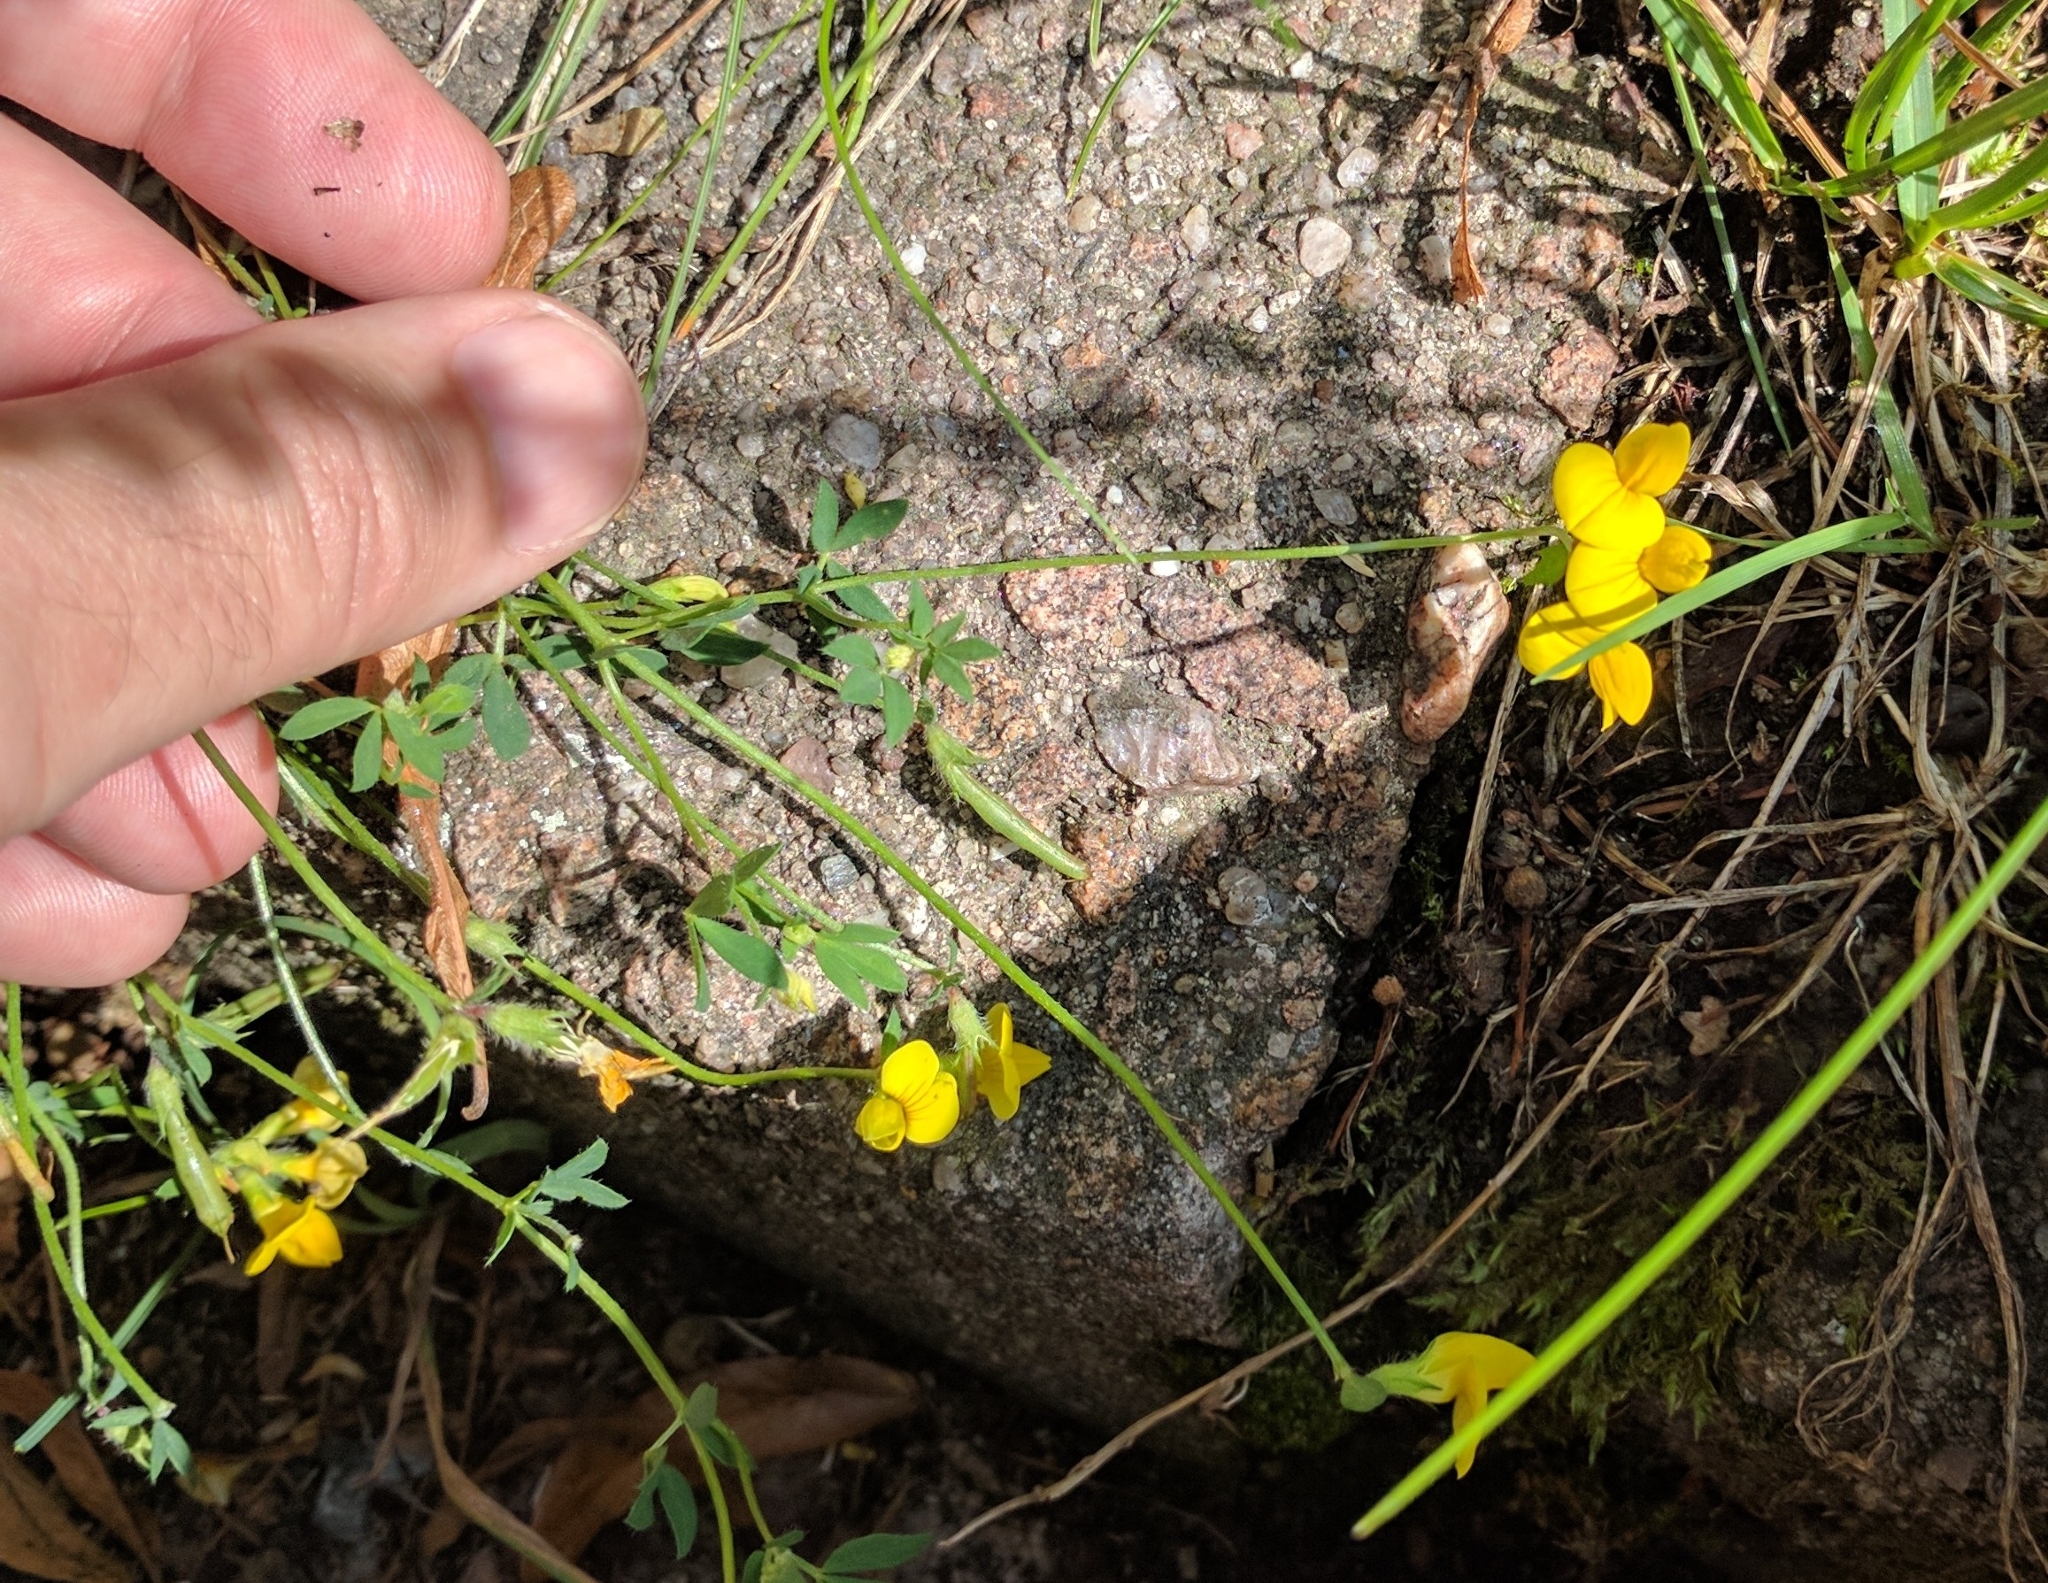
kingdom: Plantae
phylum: Tracheophyta
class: Magnoliopsida
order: Fabales
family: Fabaceae
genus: Lotus
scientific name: Lotus corniculatus
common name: Common bird's-foot-trefoil
